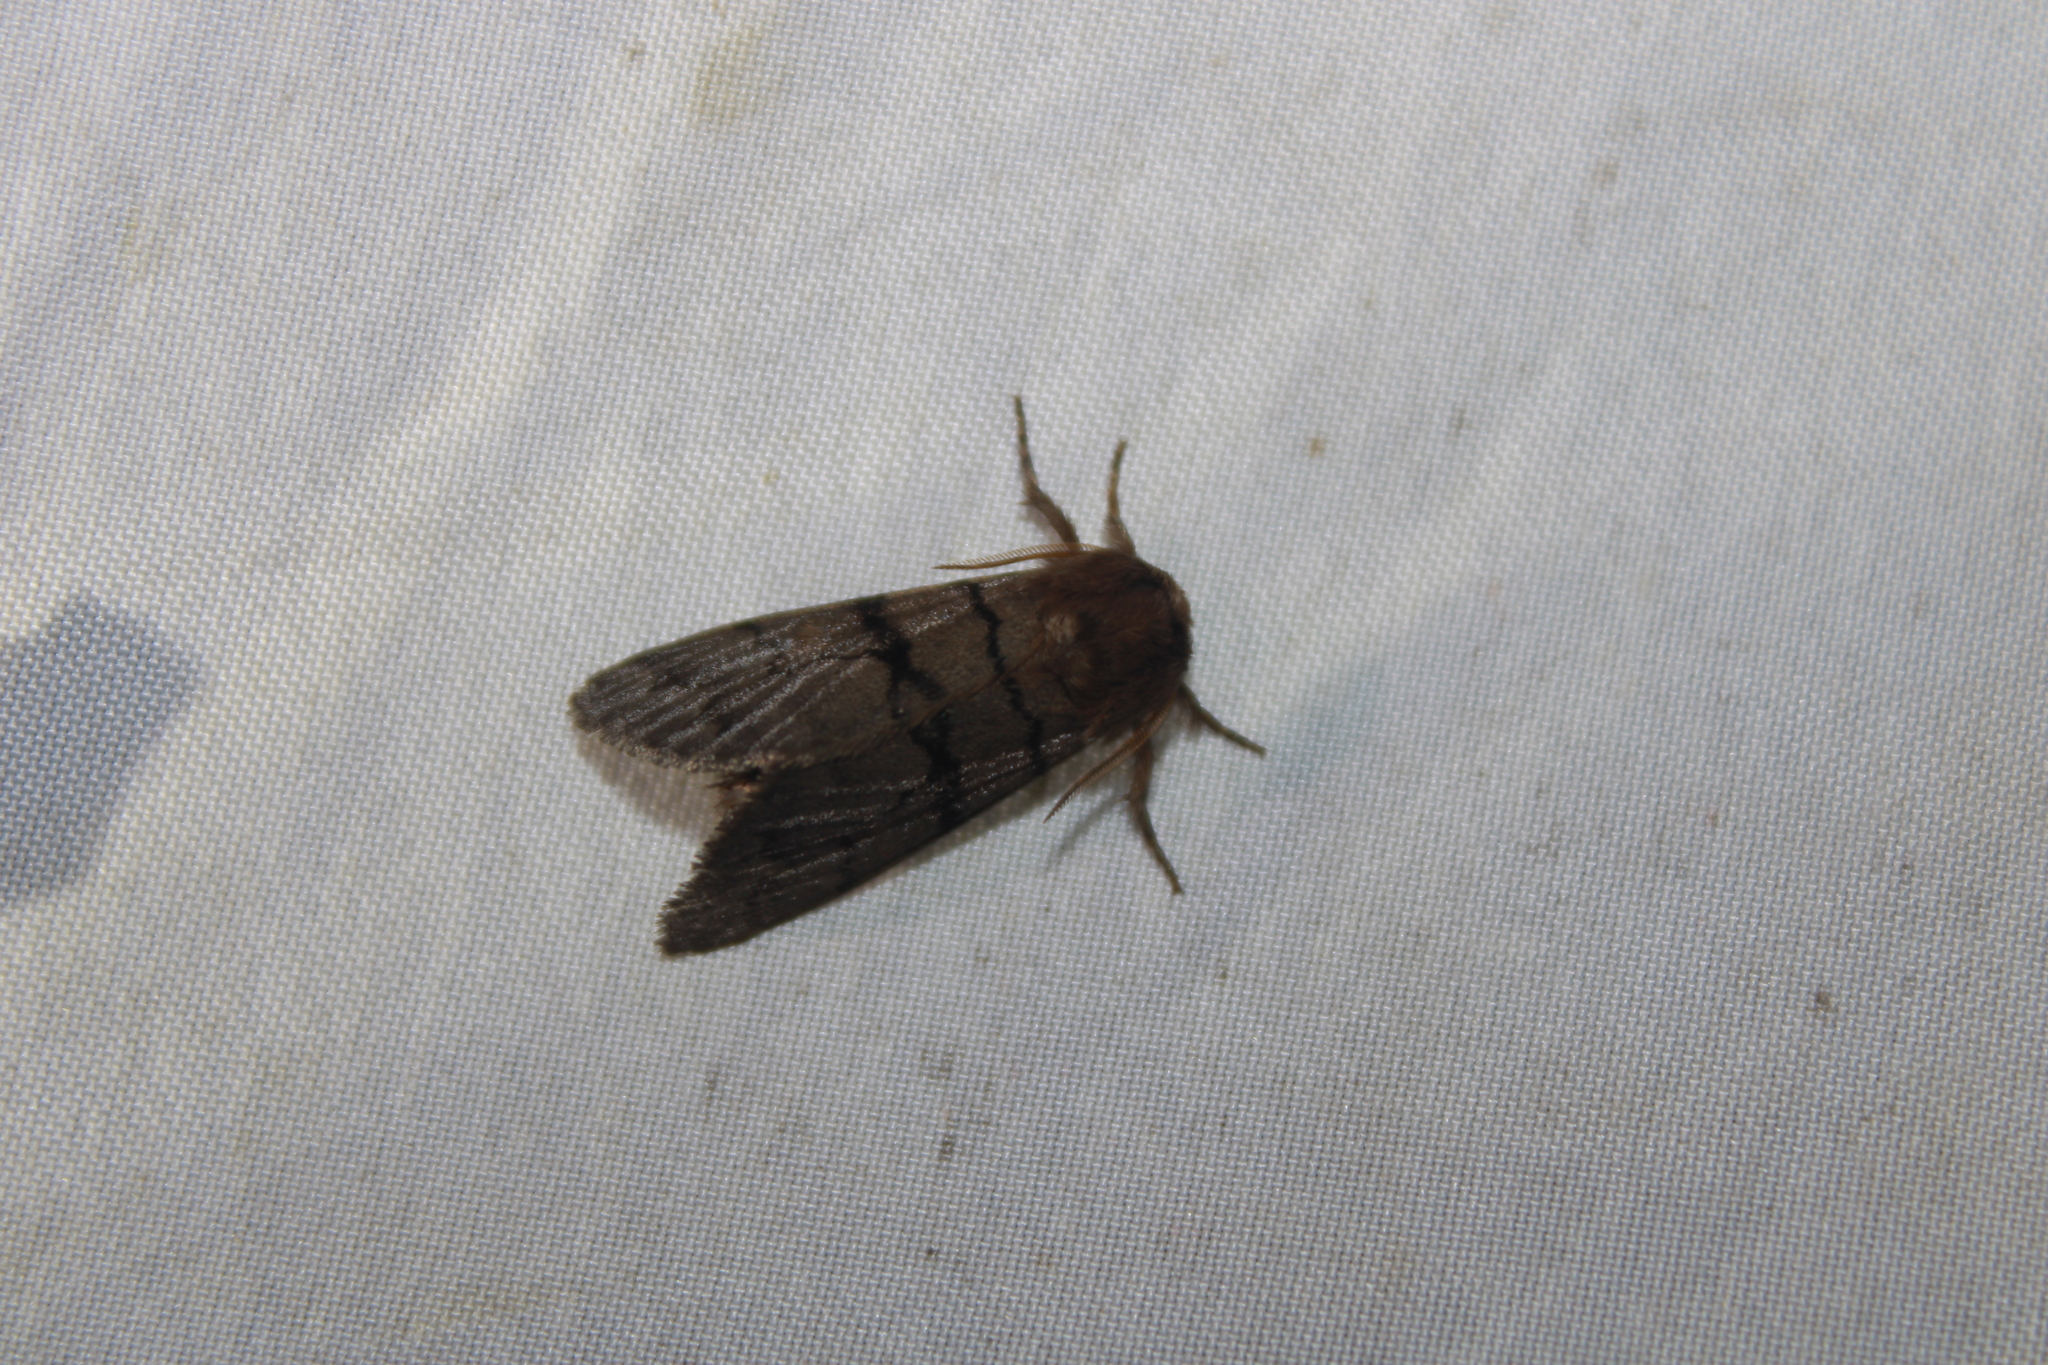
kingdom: Animalia
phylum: Arthropoda
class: Insecta
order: Lepidoptera
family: Noctuidae
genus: Panthea
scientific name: Panthea furcilla
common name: Eastern panthea moth
